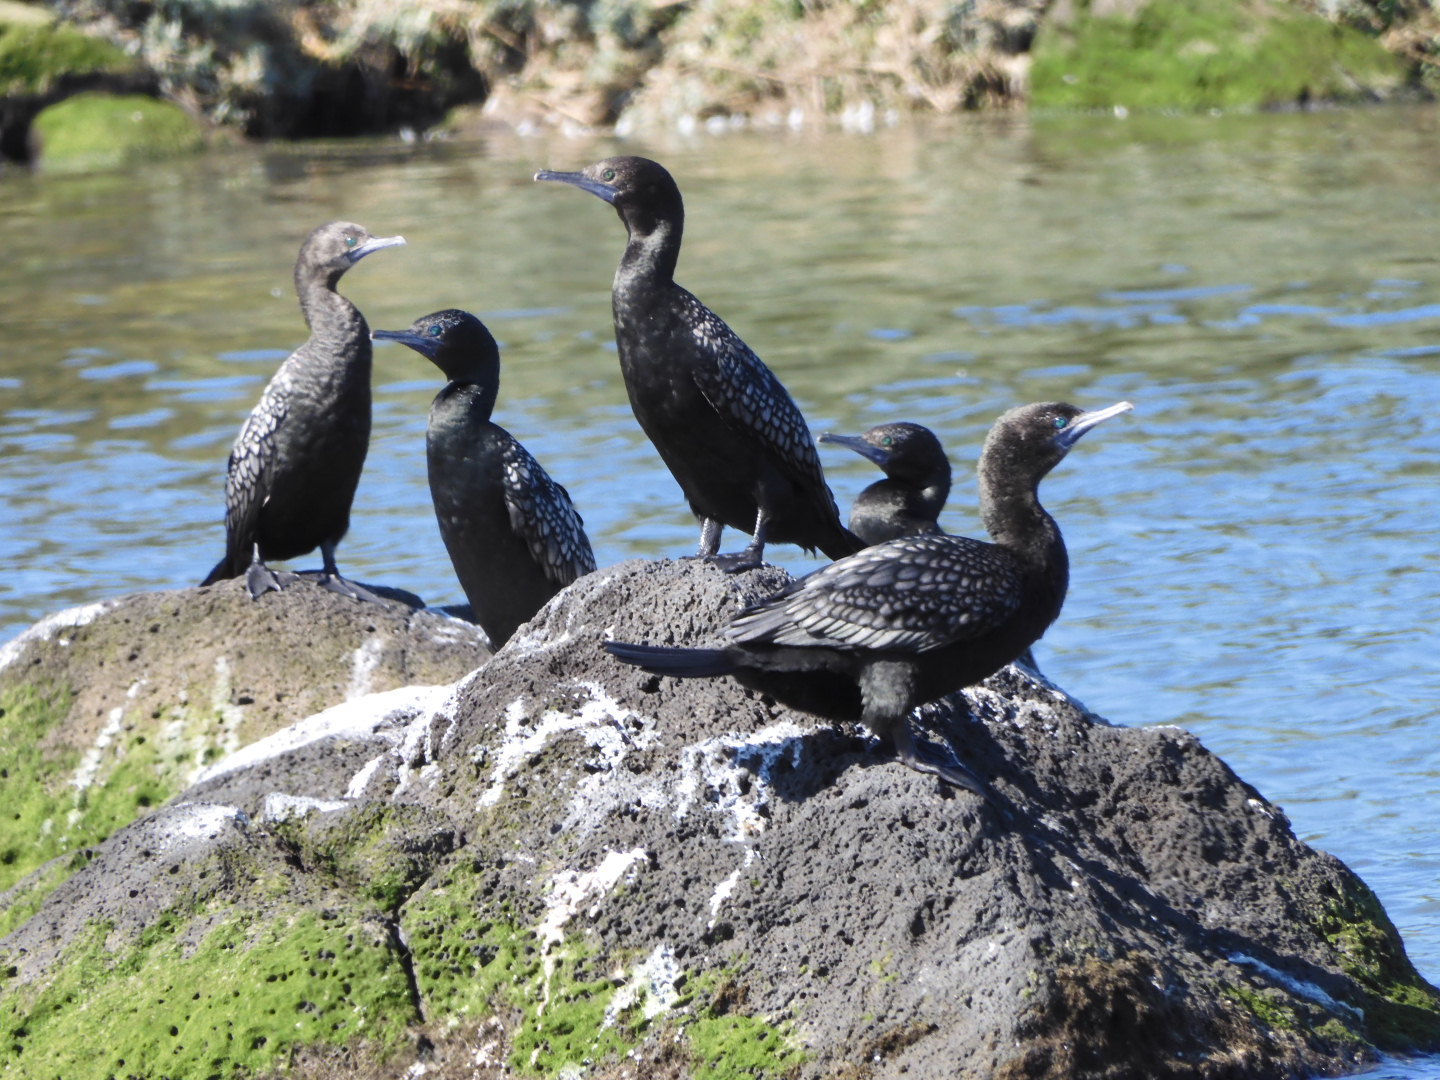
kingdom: Animalia
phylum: Chordata
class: Aves
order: Suliformes
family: Phalacrocoracidae
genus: Phalacrocorax
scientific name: Phalacrocorax sulcirostris
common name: Little black cormorant
